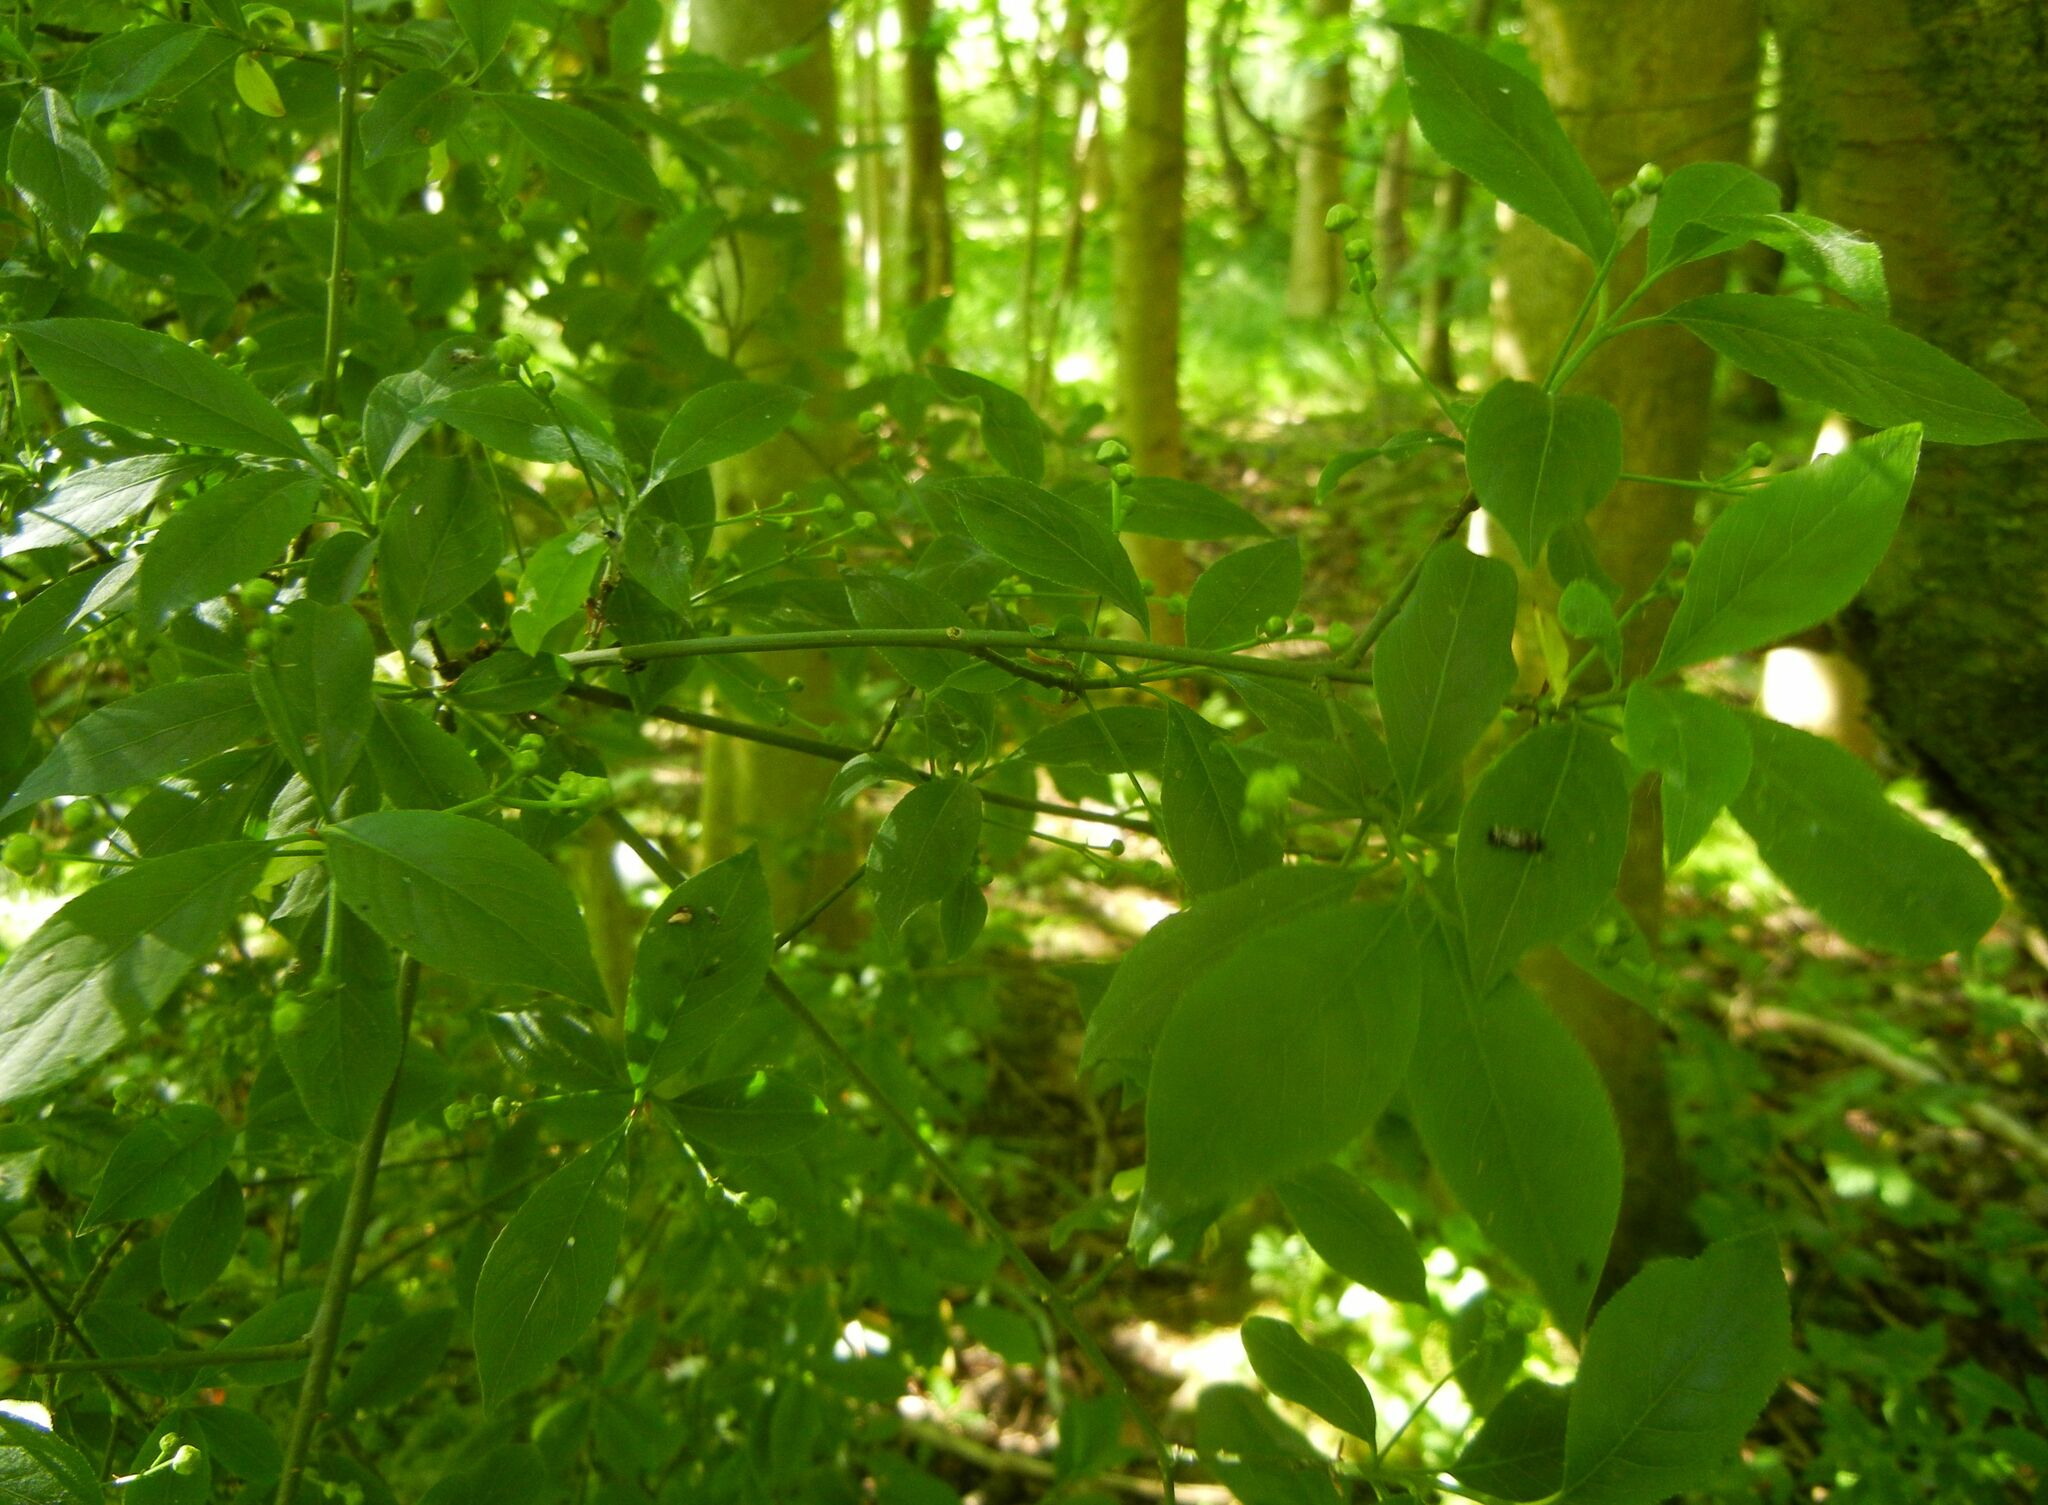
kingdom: Plantae
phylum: Tracheophyta
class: Magnoliopsida
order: Celastrales
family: Celastraceae
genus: Euonymus
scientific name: Euonymus europaeus
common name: Spindle
